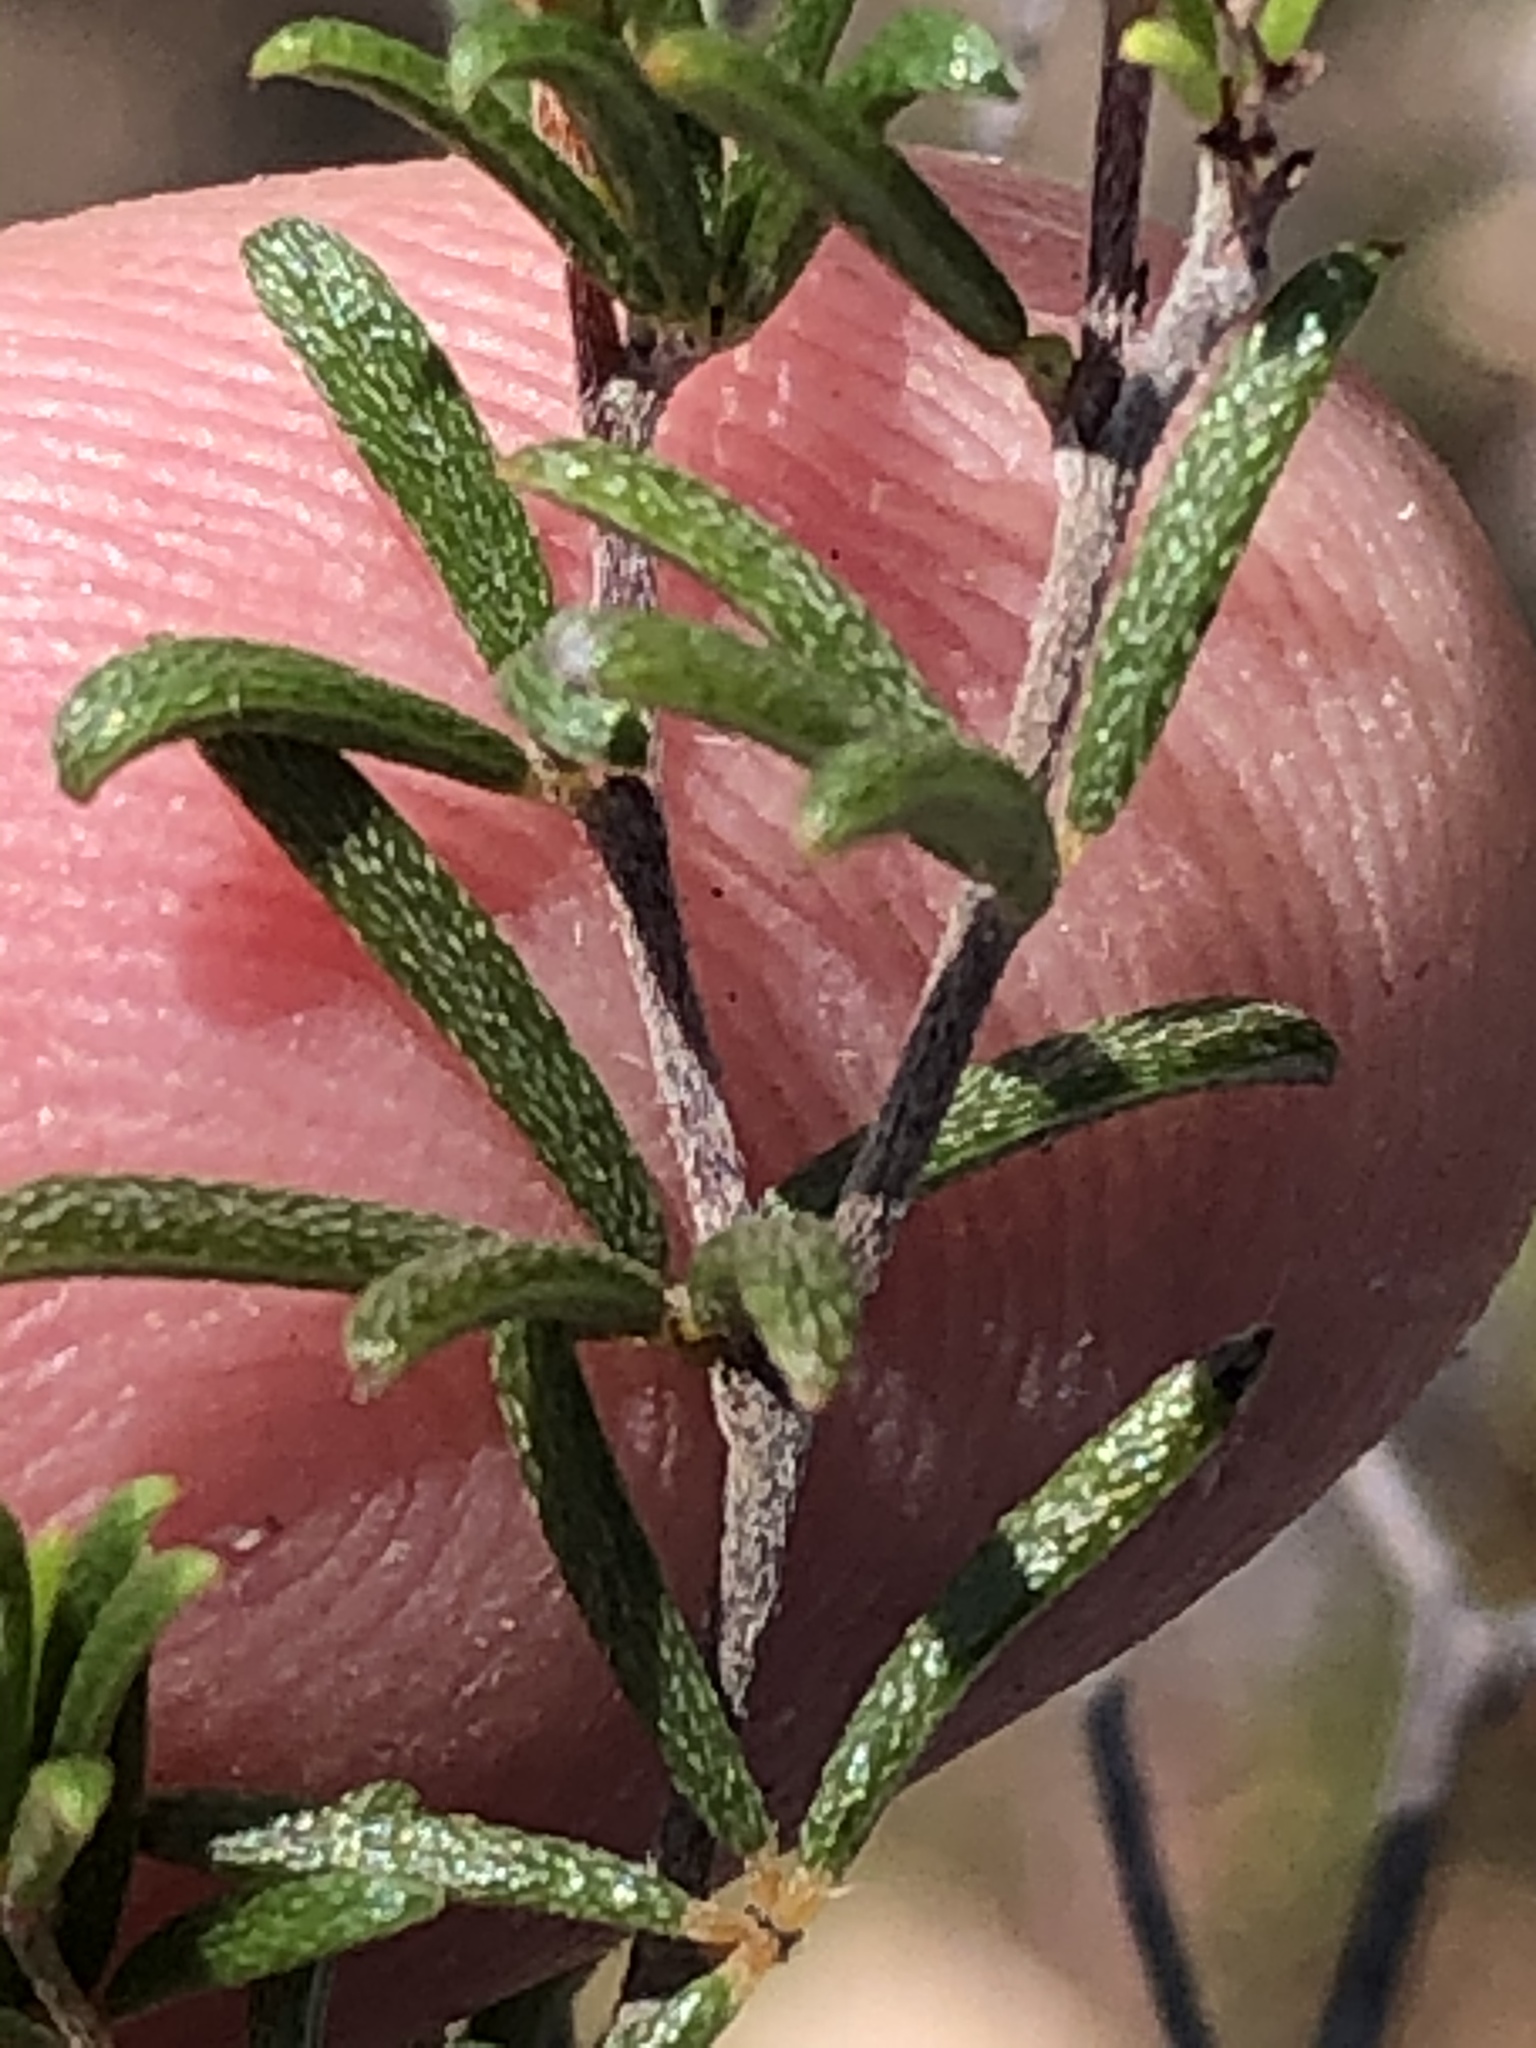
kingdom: Plantae
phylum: Tracheophyta
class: Magnoliopsida
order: Fabales
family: Fabaceae
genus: Indigofera
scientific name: Indigofera setosa
